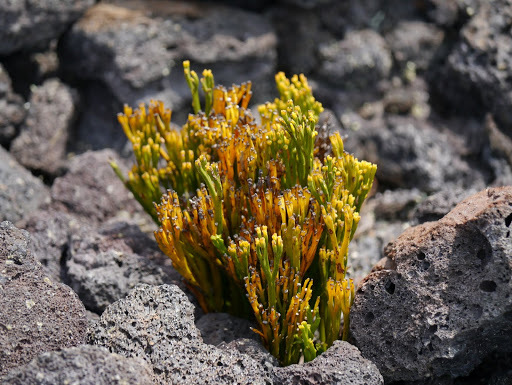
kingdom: Plantae
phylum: Tracheophyta
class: Polypodiopsida
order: Psilotales
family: Psilotaceae
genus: Psilotum
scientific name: Psilotum nudum
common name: Skeleton fork fern
